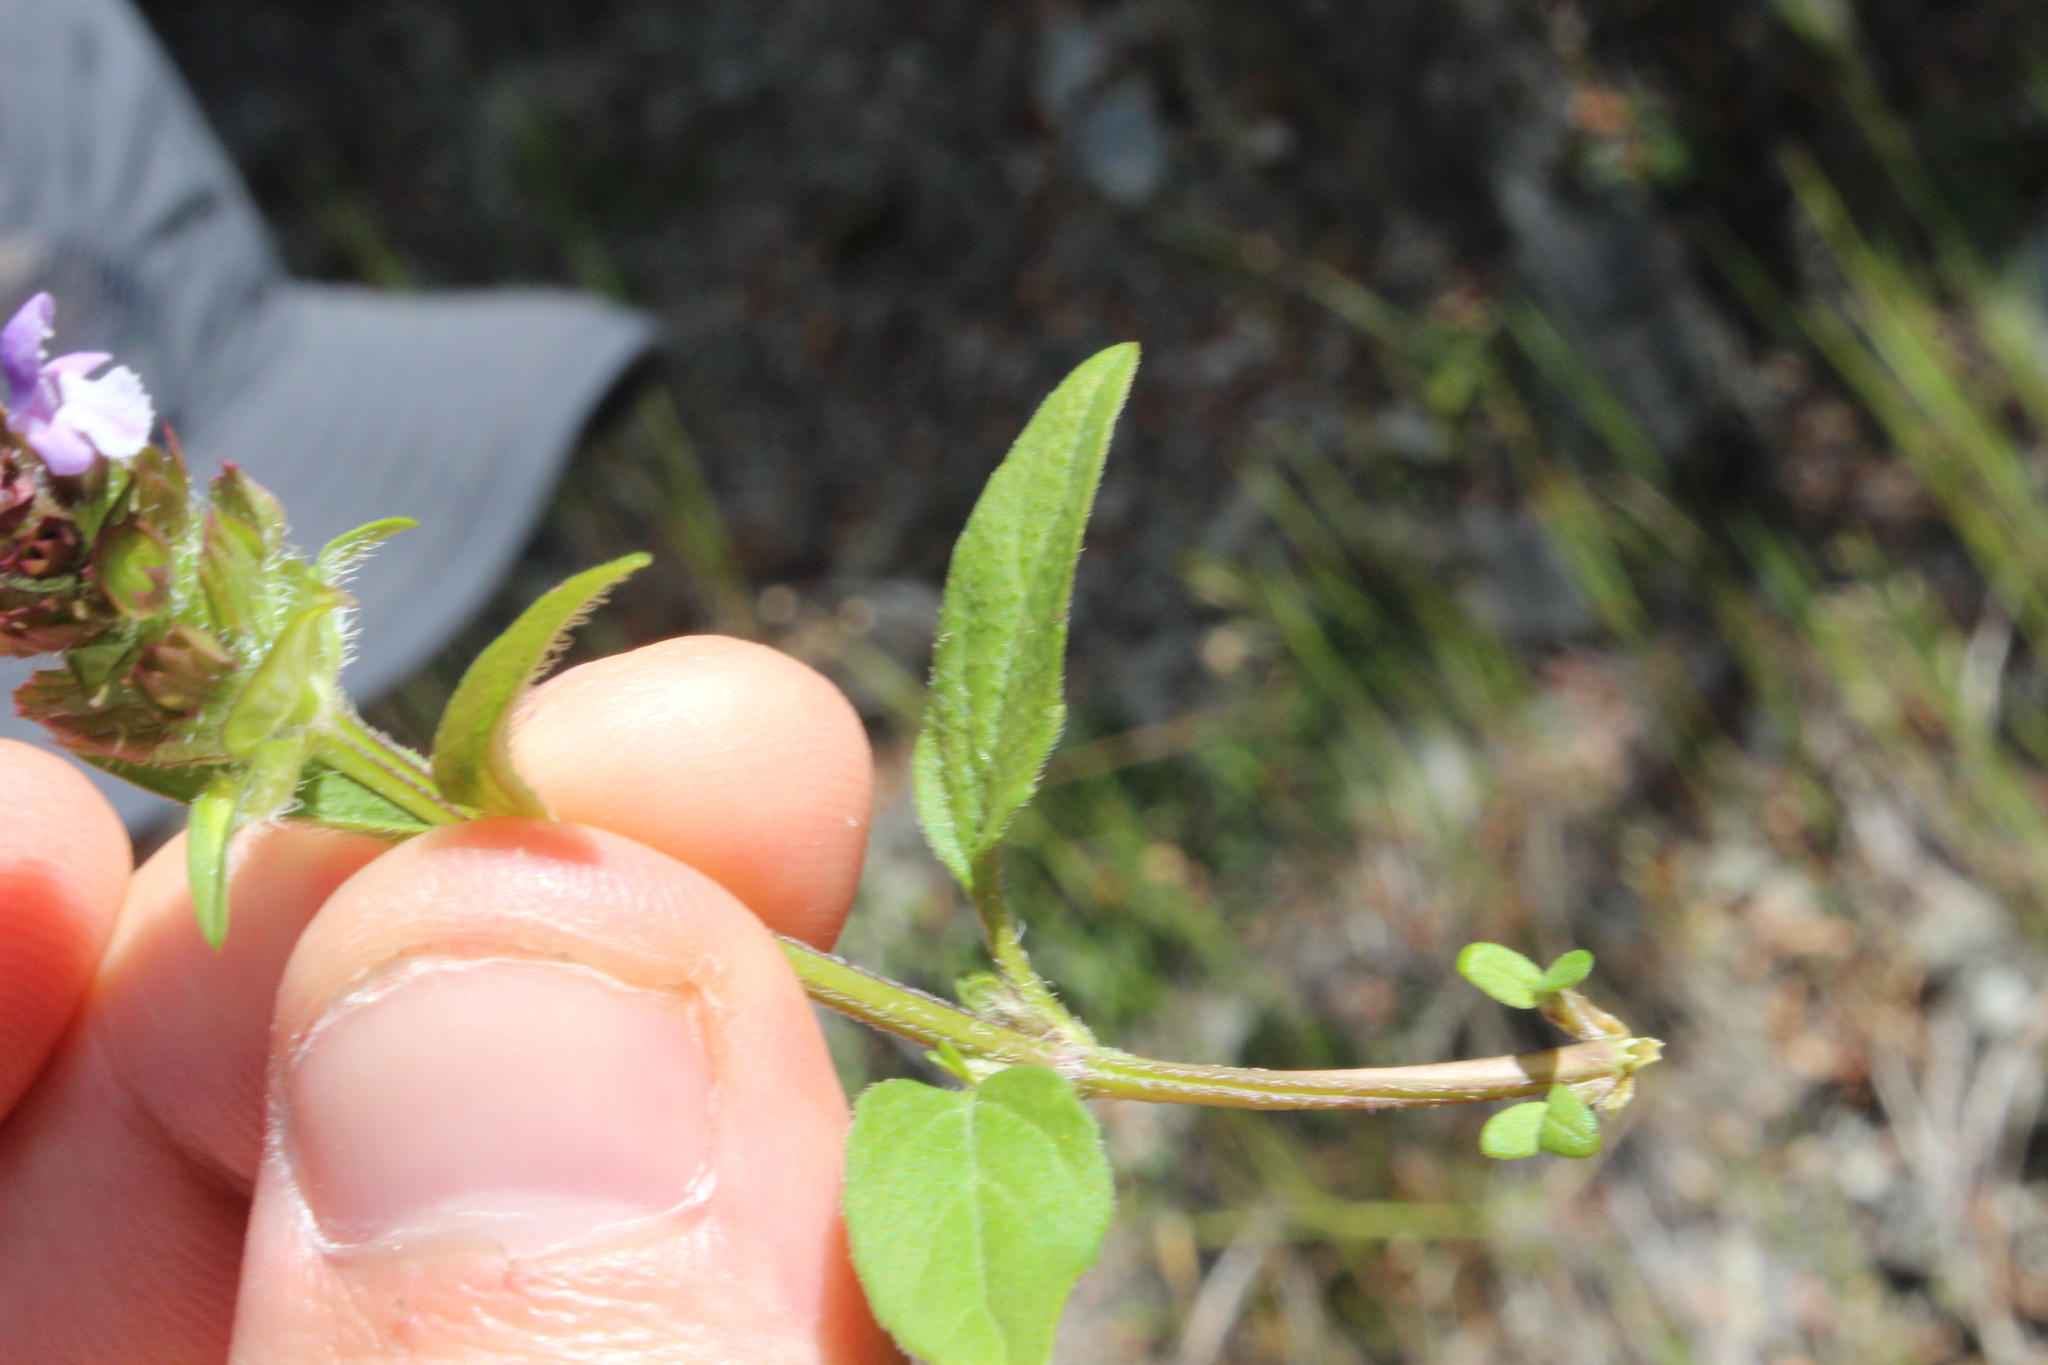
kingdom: Plantae
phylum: Tracheophyta
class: Magnoliopsida
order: Lamiales
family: Lamiaceae
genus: Prunella
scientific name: Prunella vulgaris
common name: Heal-all
